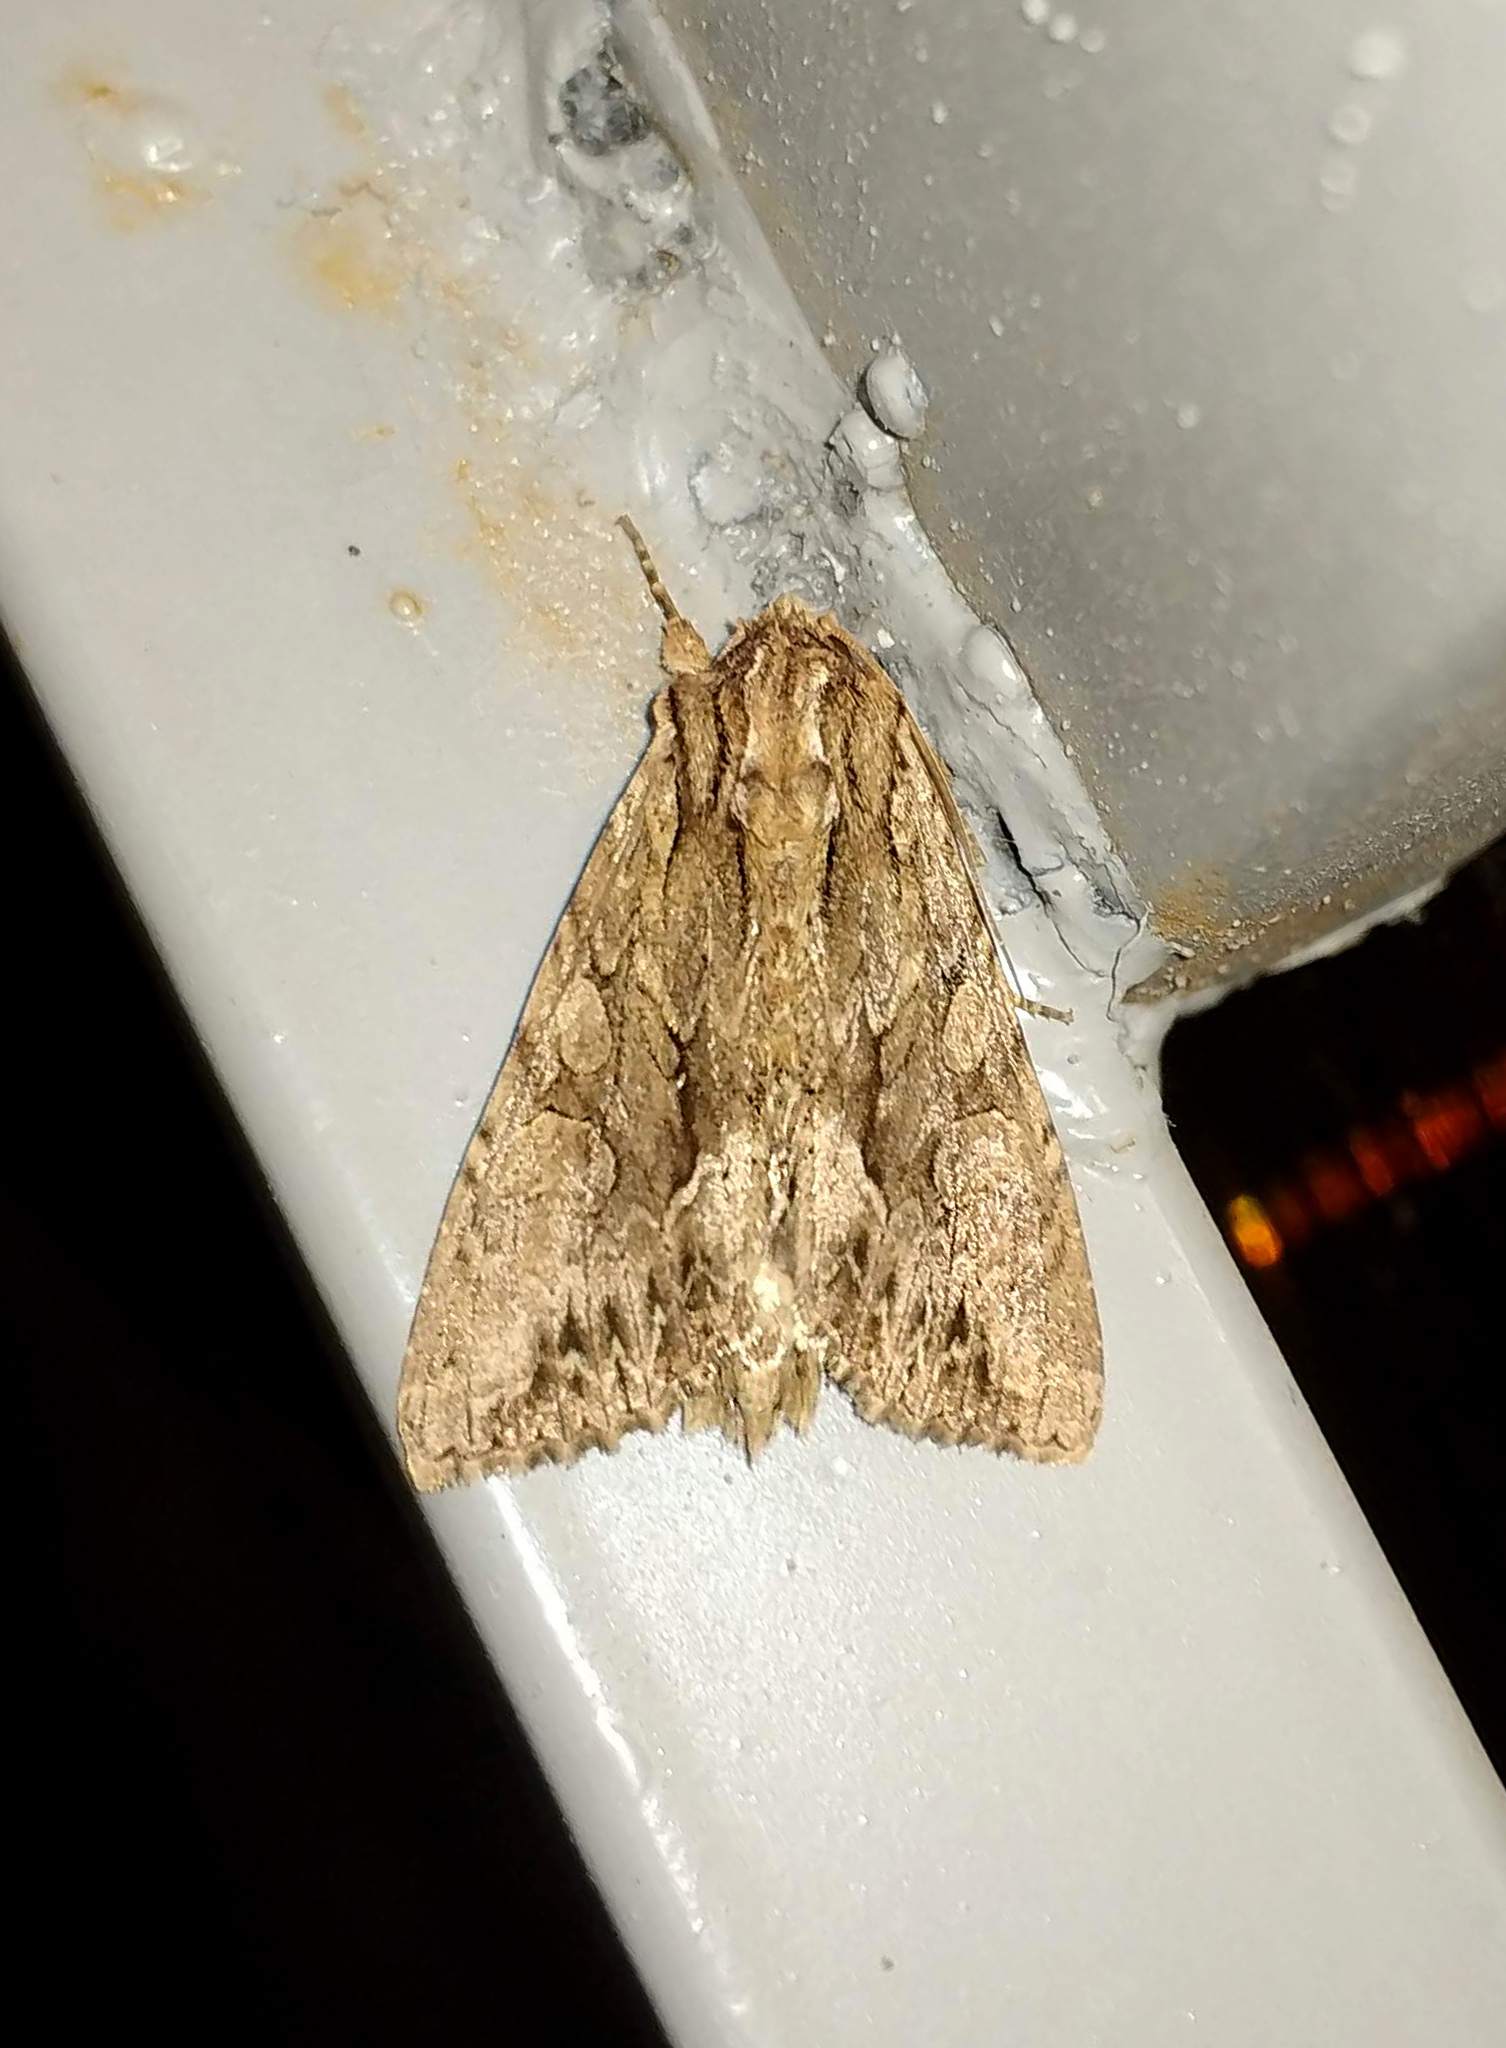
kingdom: Animalia
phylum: Arthropoda
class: Insecta
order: Lepidoptera
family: Noctuidae
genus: Apamea
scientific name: Apamea monoglypha
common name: Dark arches
